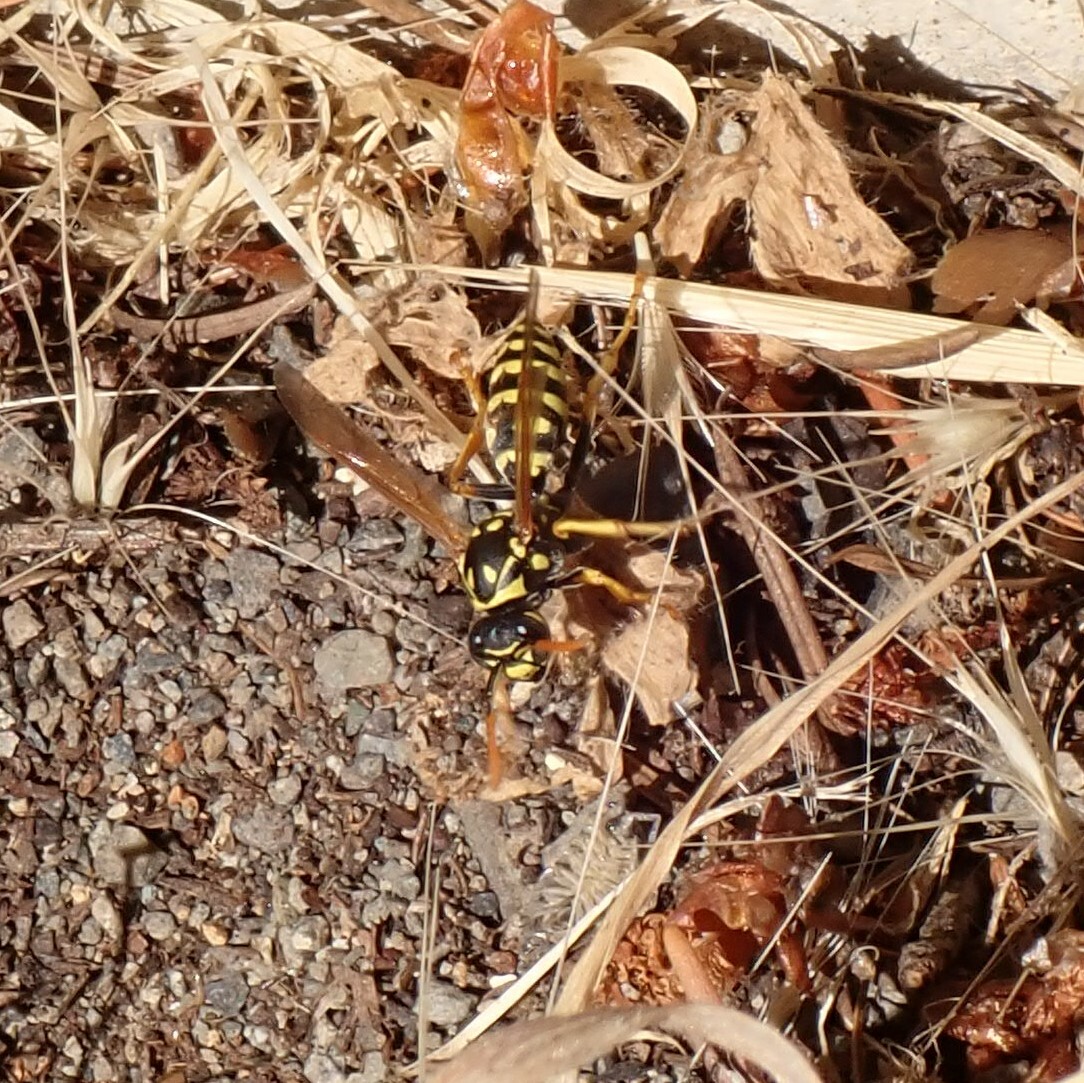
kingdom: Animalia
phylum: Arthropoda
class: Insecta
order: Hymenoptera
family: Eumenidae
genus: Polistes
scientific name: Polistes dominula
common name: Paper wasp
